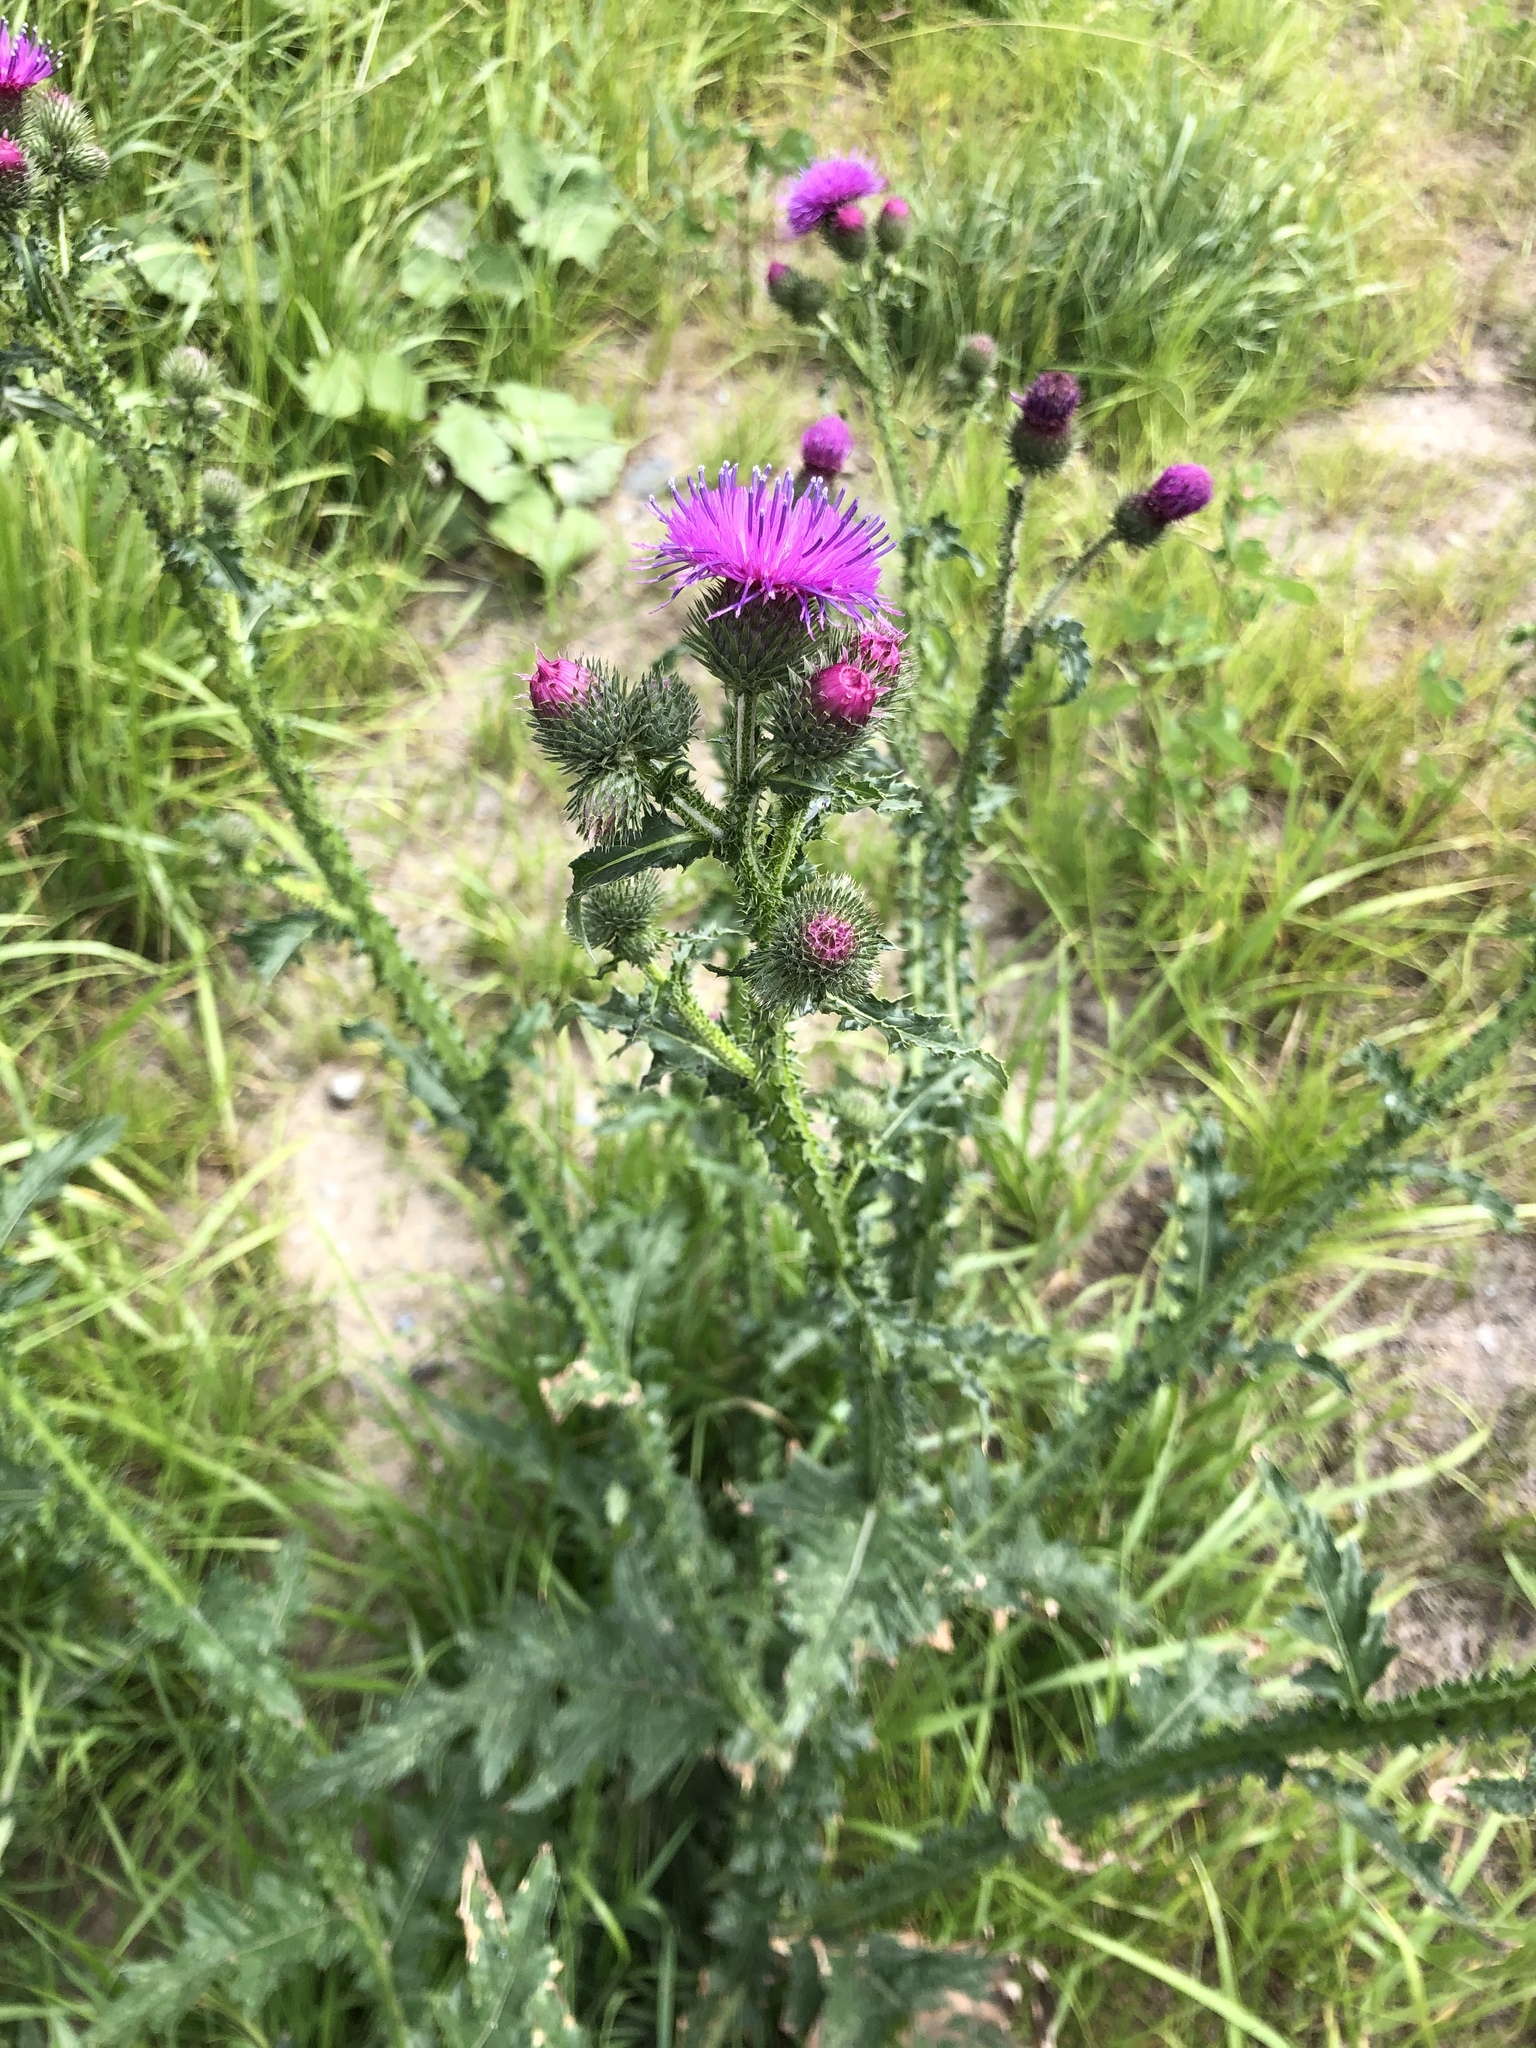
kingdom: Plantae
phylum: Tracheophyta
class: Magnoliopsida
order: Asterales
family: Asteraceae
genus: Carduus
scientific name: Carduus crispus
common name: Welted thistle
